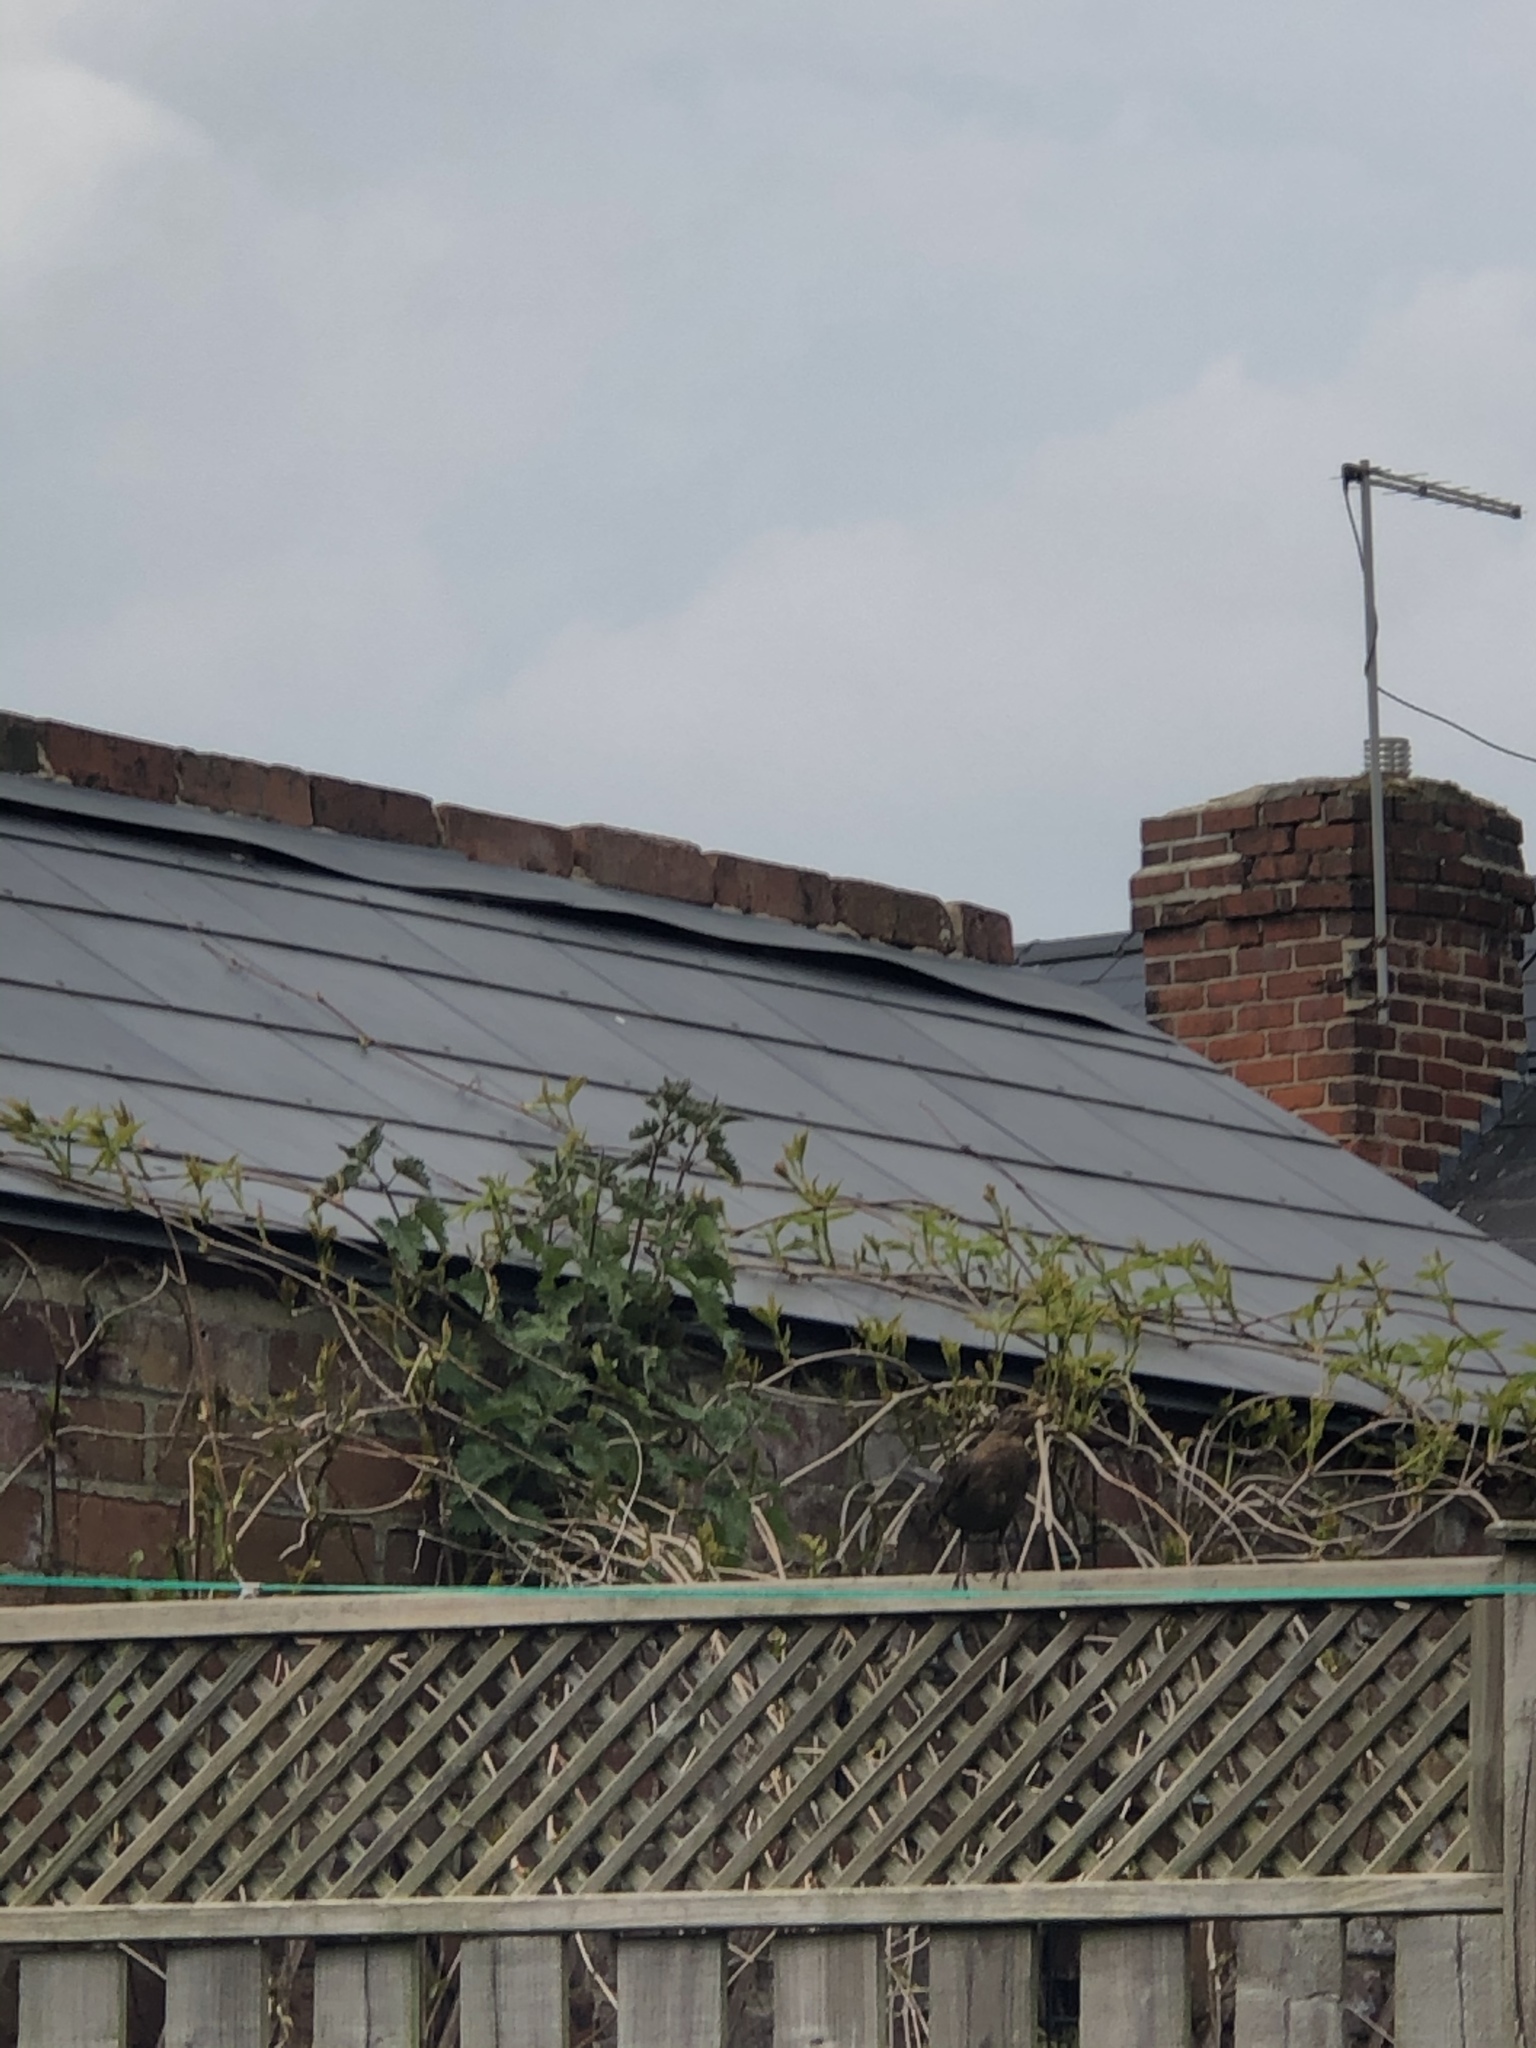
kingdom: Animalia
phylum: Chordata
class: Aves
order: Passeriformes
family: Turdidae
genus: Turdus
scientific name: Turdus merula
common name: Common blackbird
